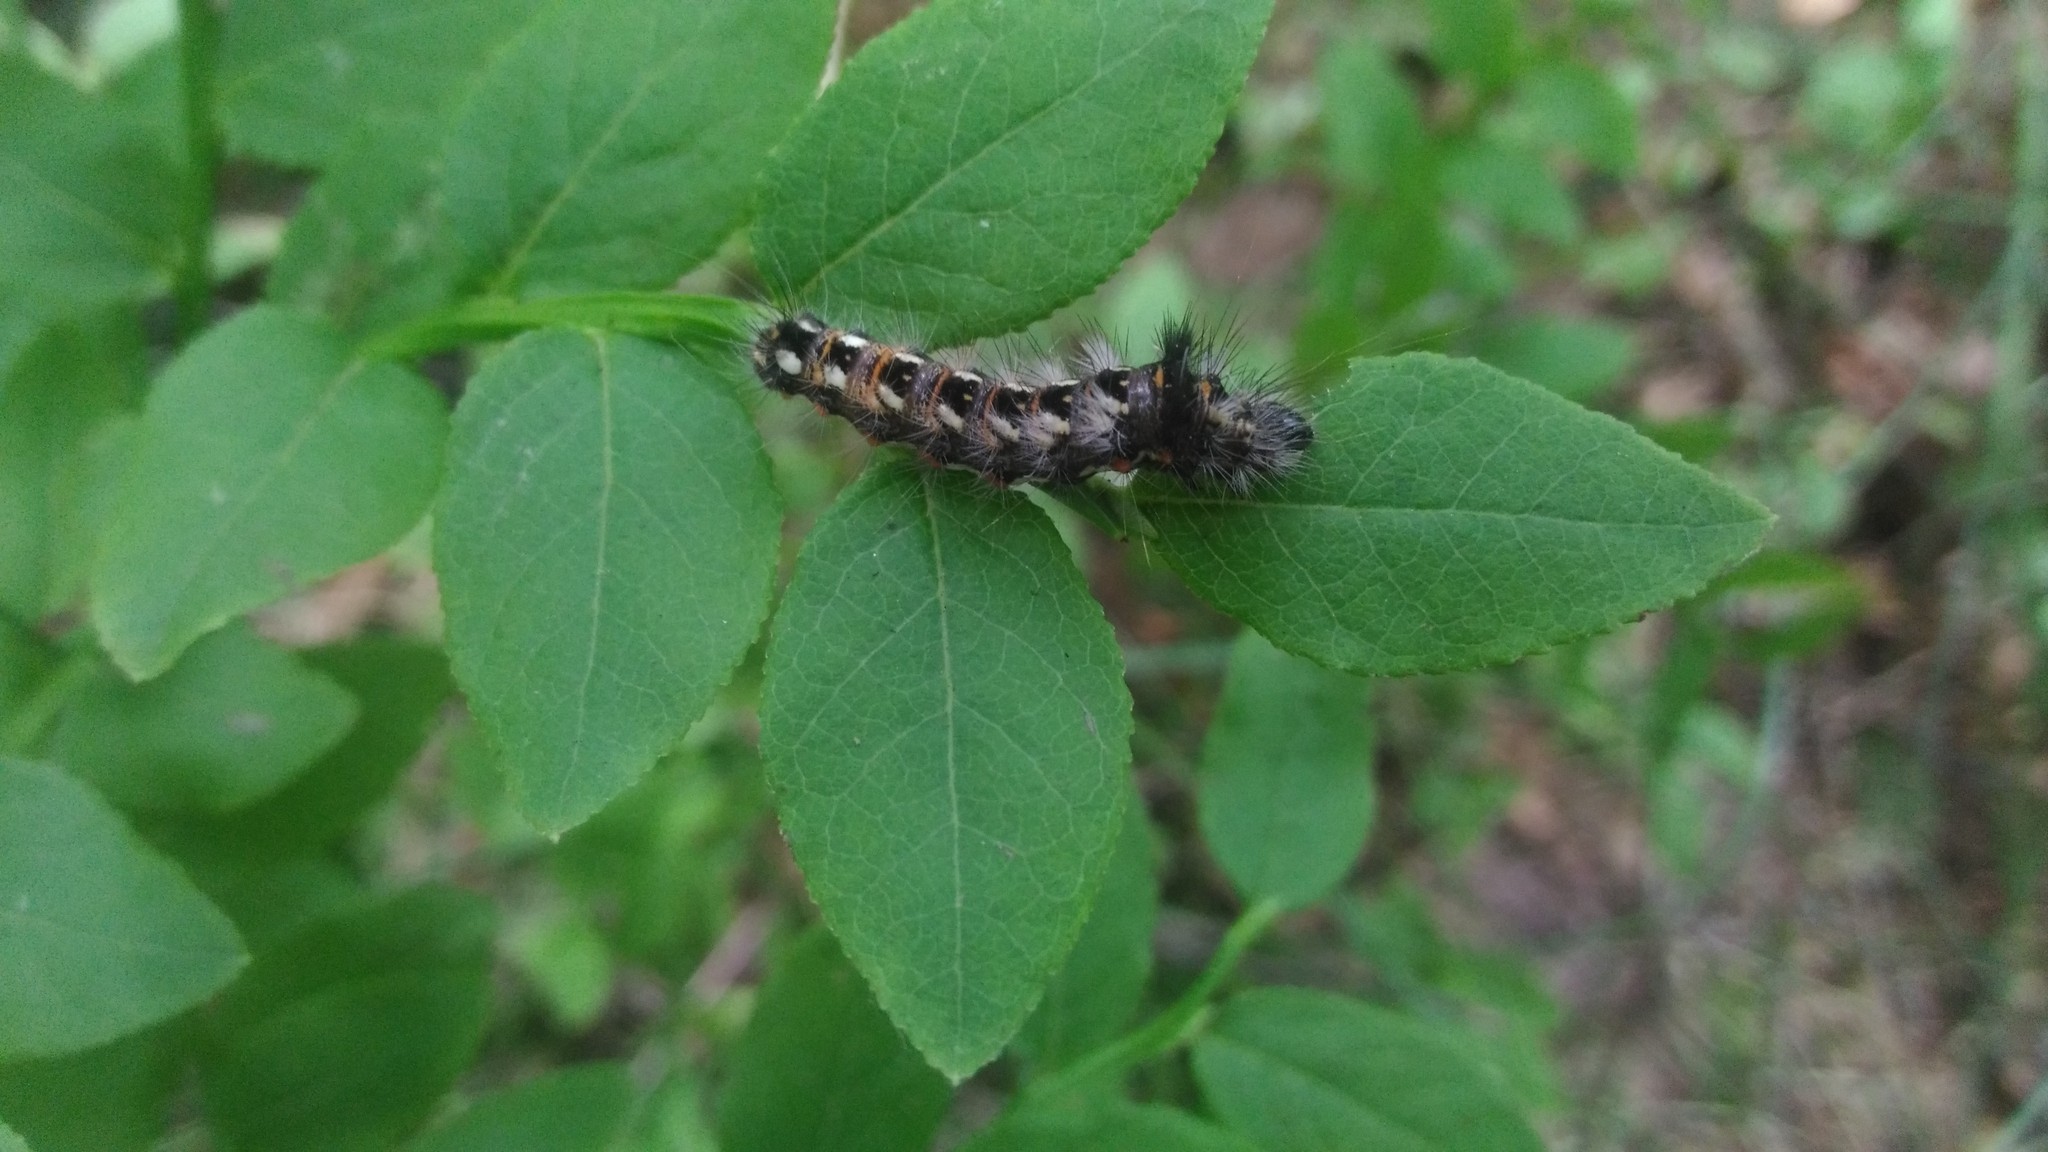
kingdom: Animalia
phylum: Arthropoda
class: Insecta
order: Lepidoptera
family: Noctuidae
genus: Acronicta
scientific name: Acronicta rumicis
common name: Knot grass
